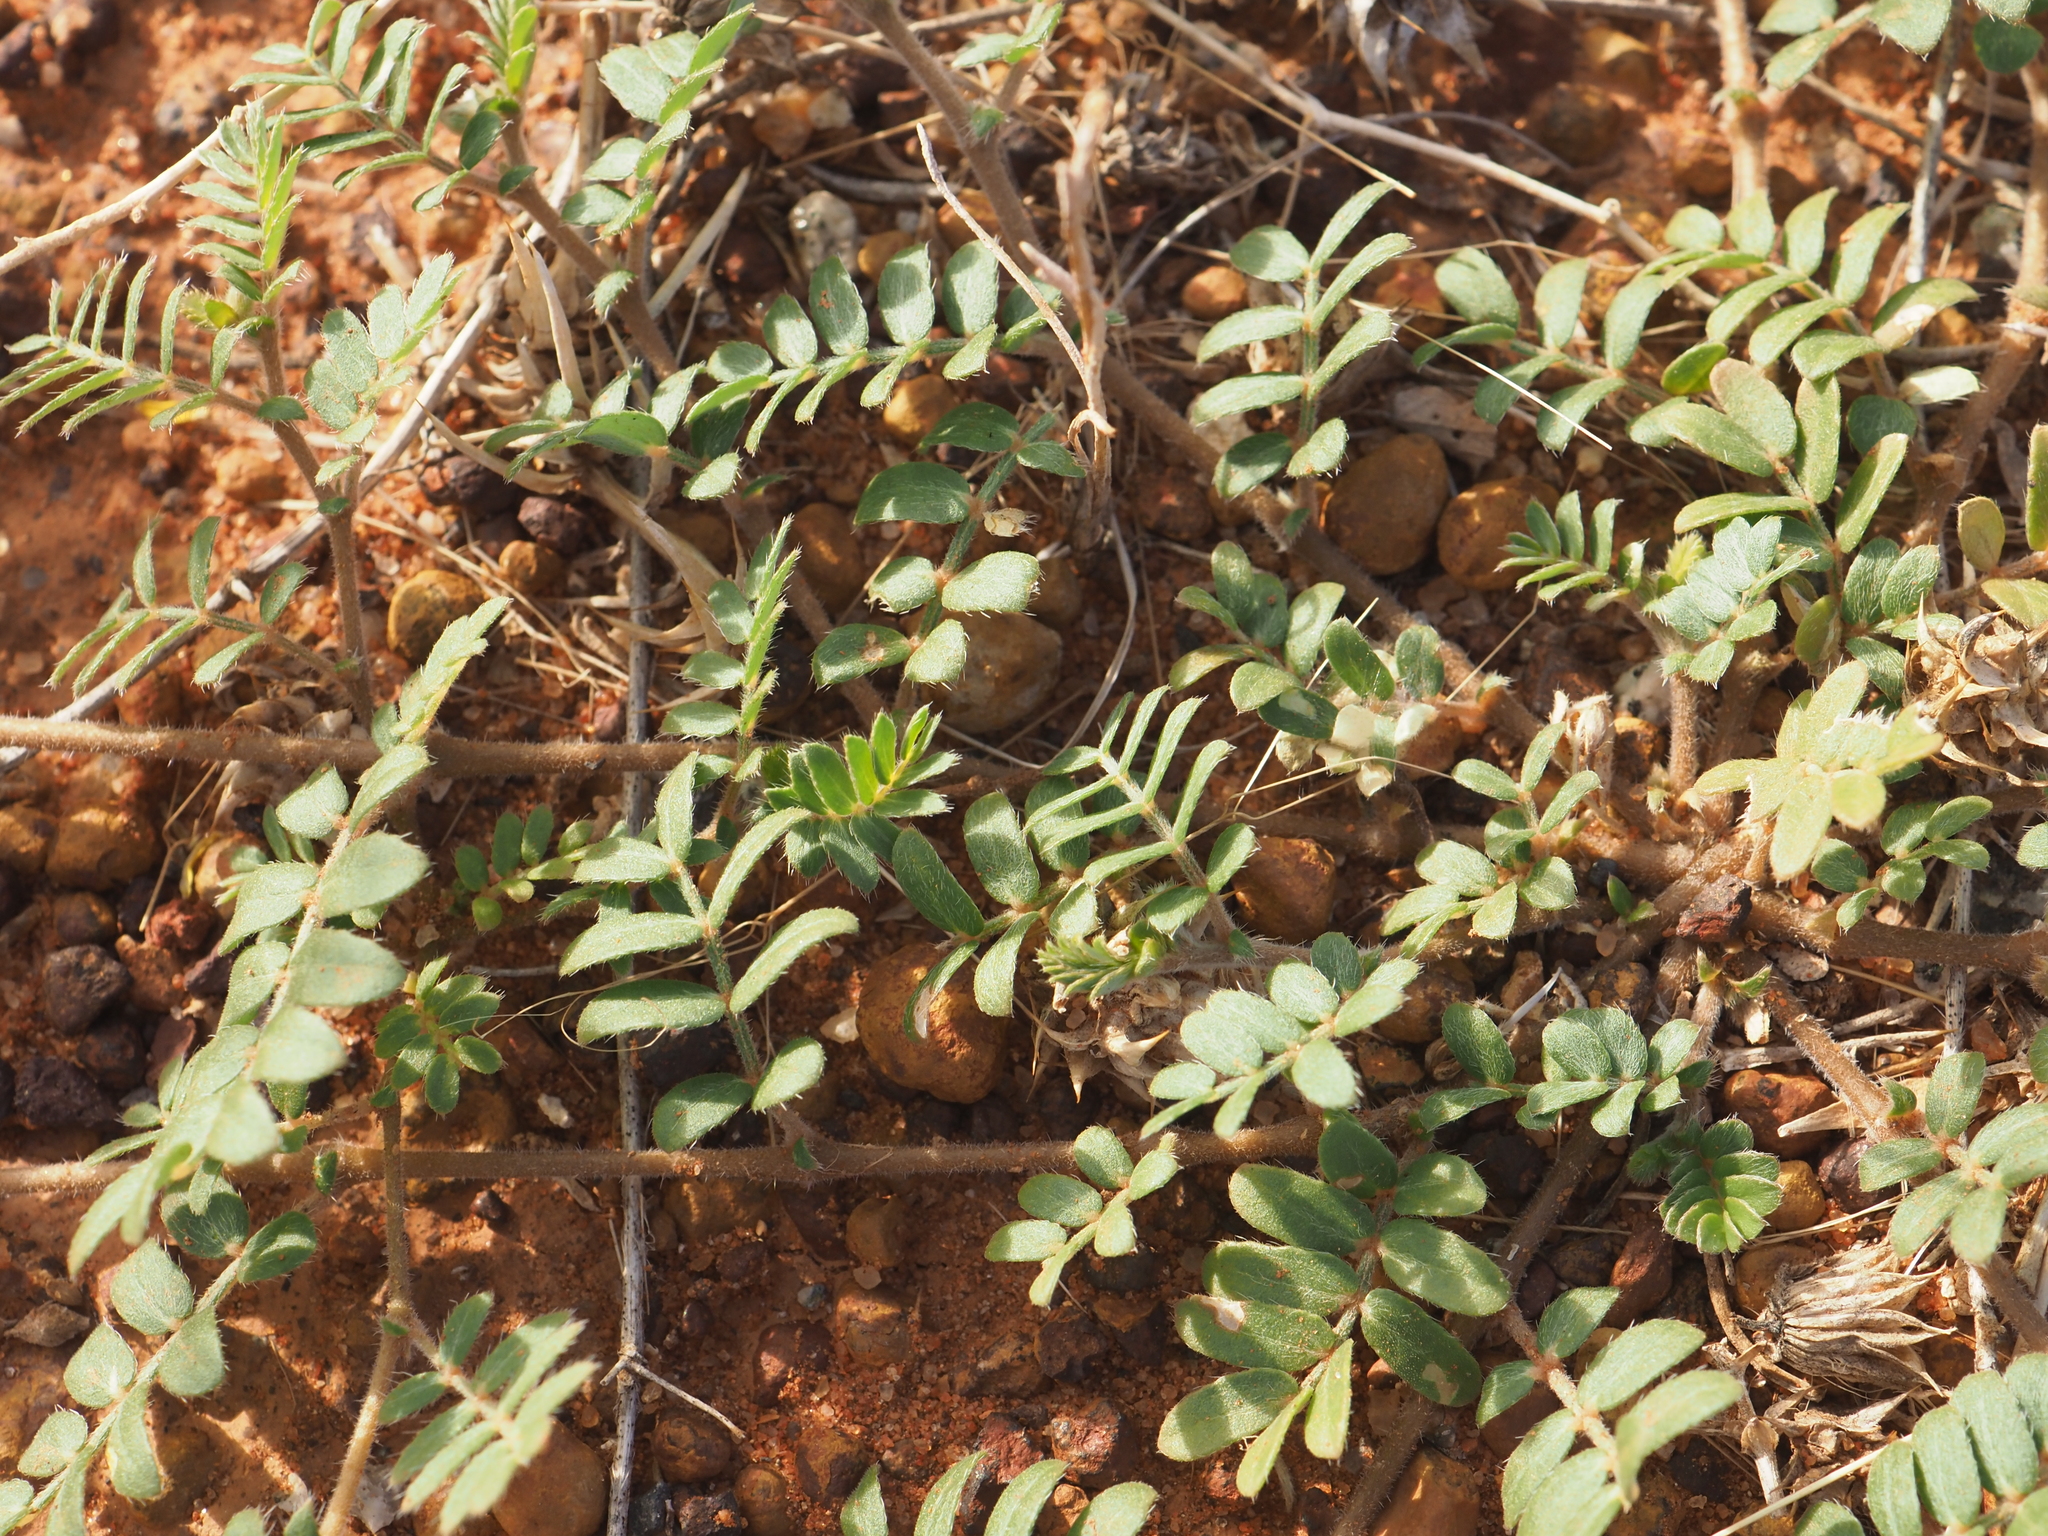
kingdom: Plantae
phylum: Tracheophyta
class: Magnoliopsida
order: Zygophyllales
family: Zygophyllaceae
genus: Tribulus
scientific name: Tribulus terrestris
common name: Puncturevine
